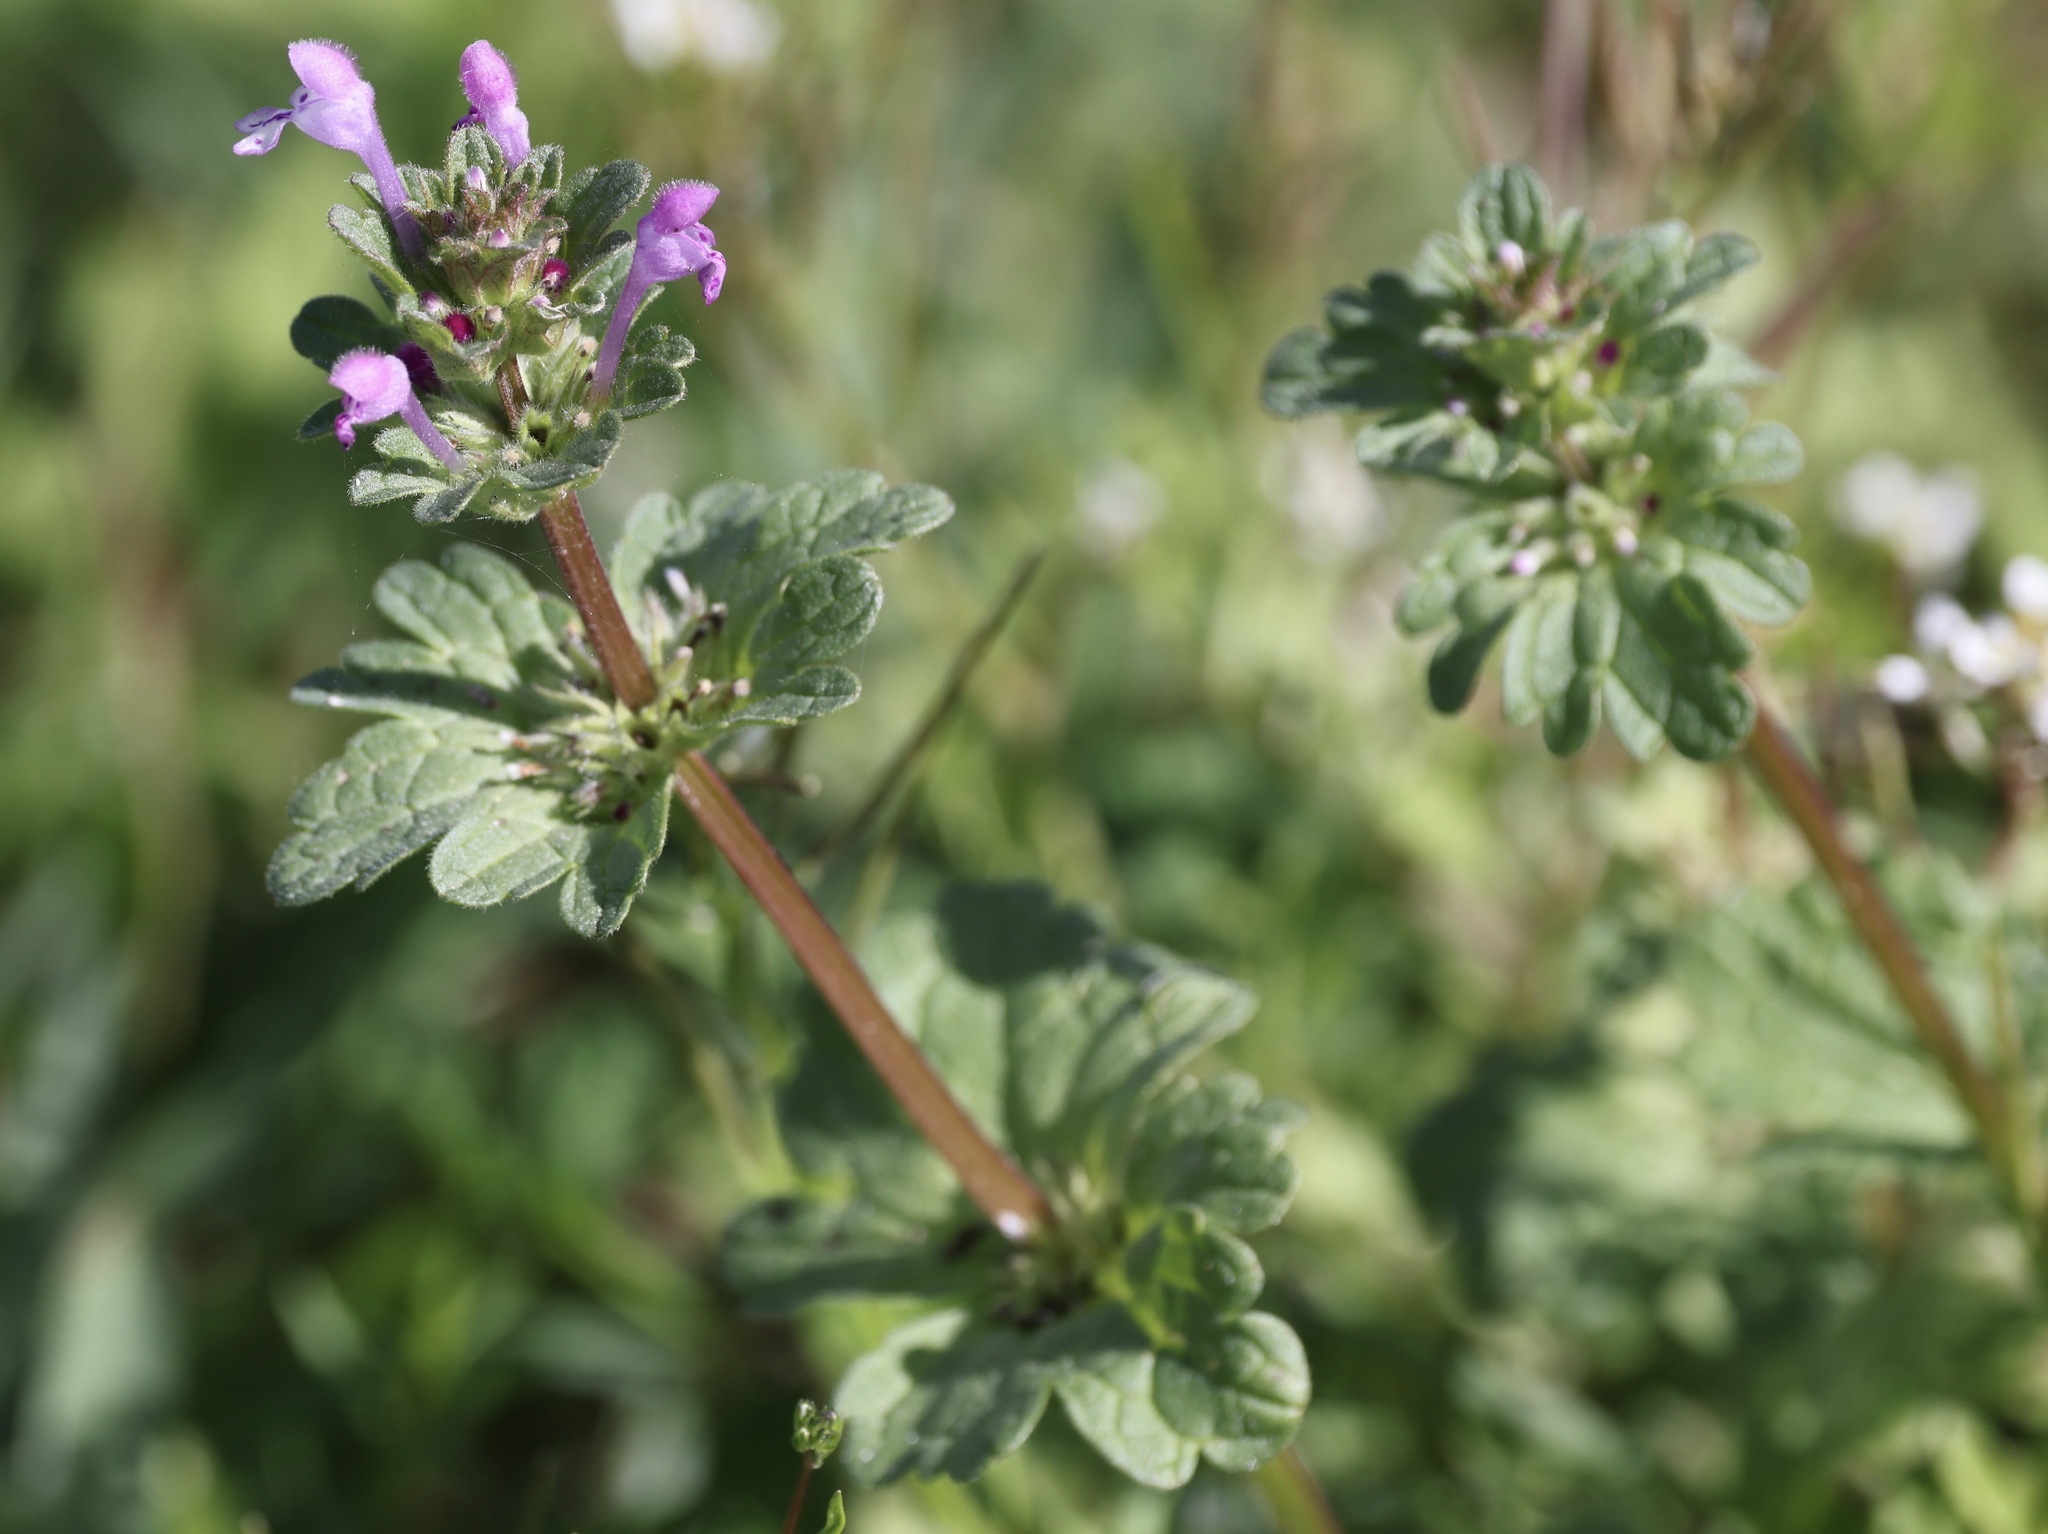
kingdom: Plantae
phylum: Tracheophyta
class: Magnoliopsida
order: Lamiales
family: Lamiaceae
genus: Lamium
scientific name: Lamium amplexicaule
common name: Henbit dead-nettle
